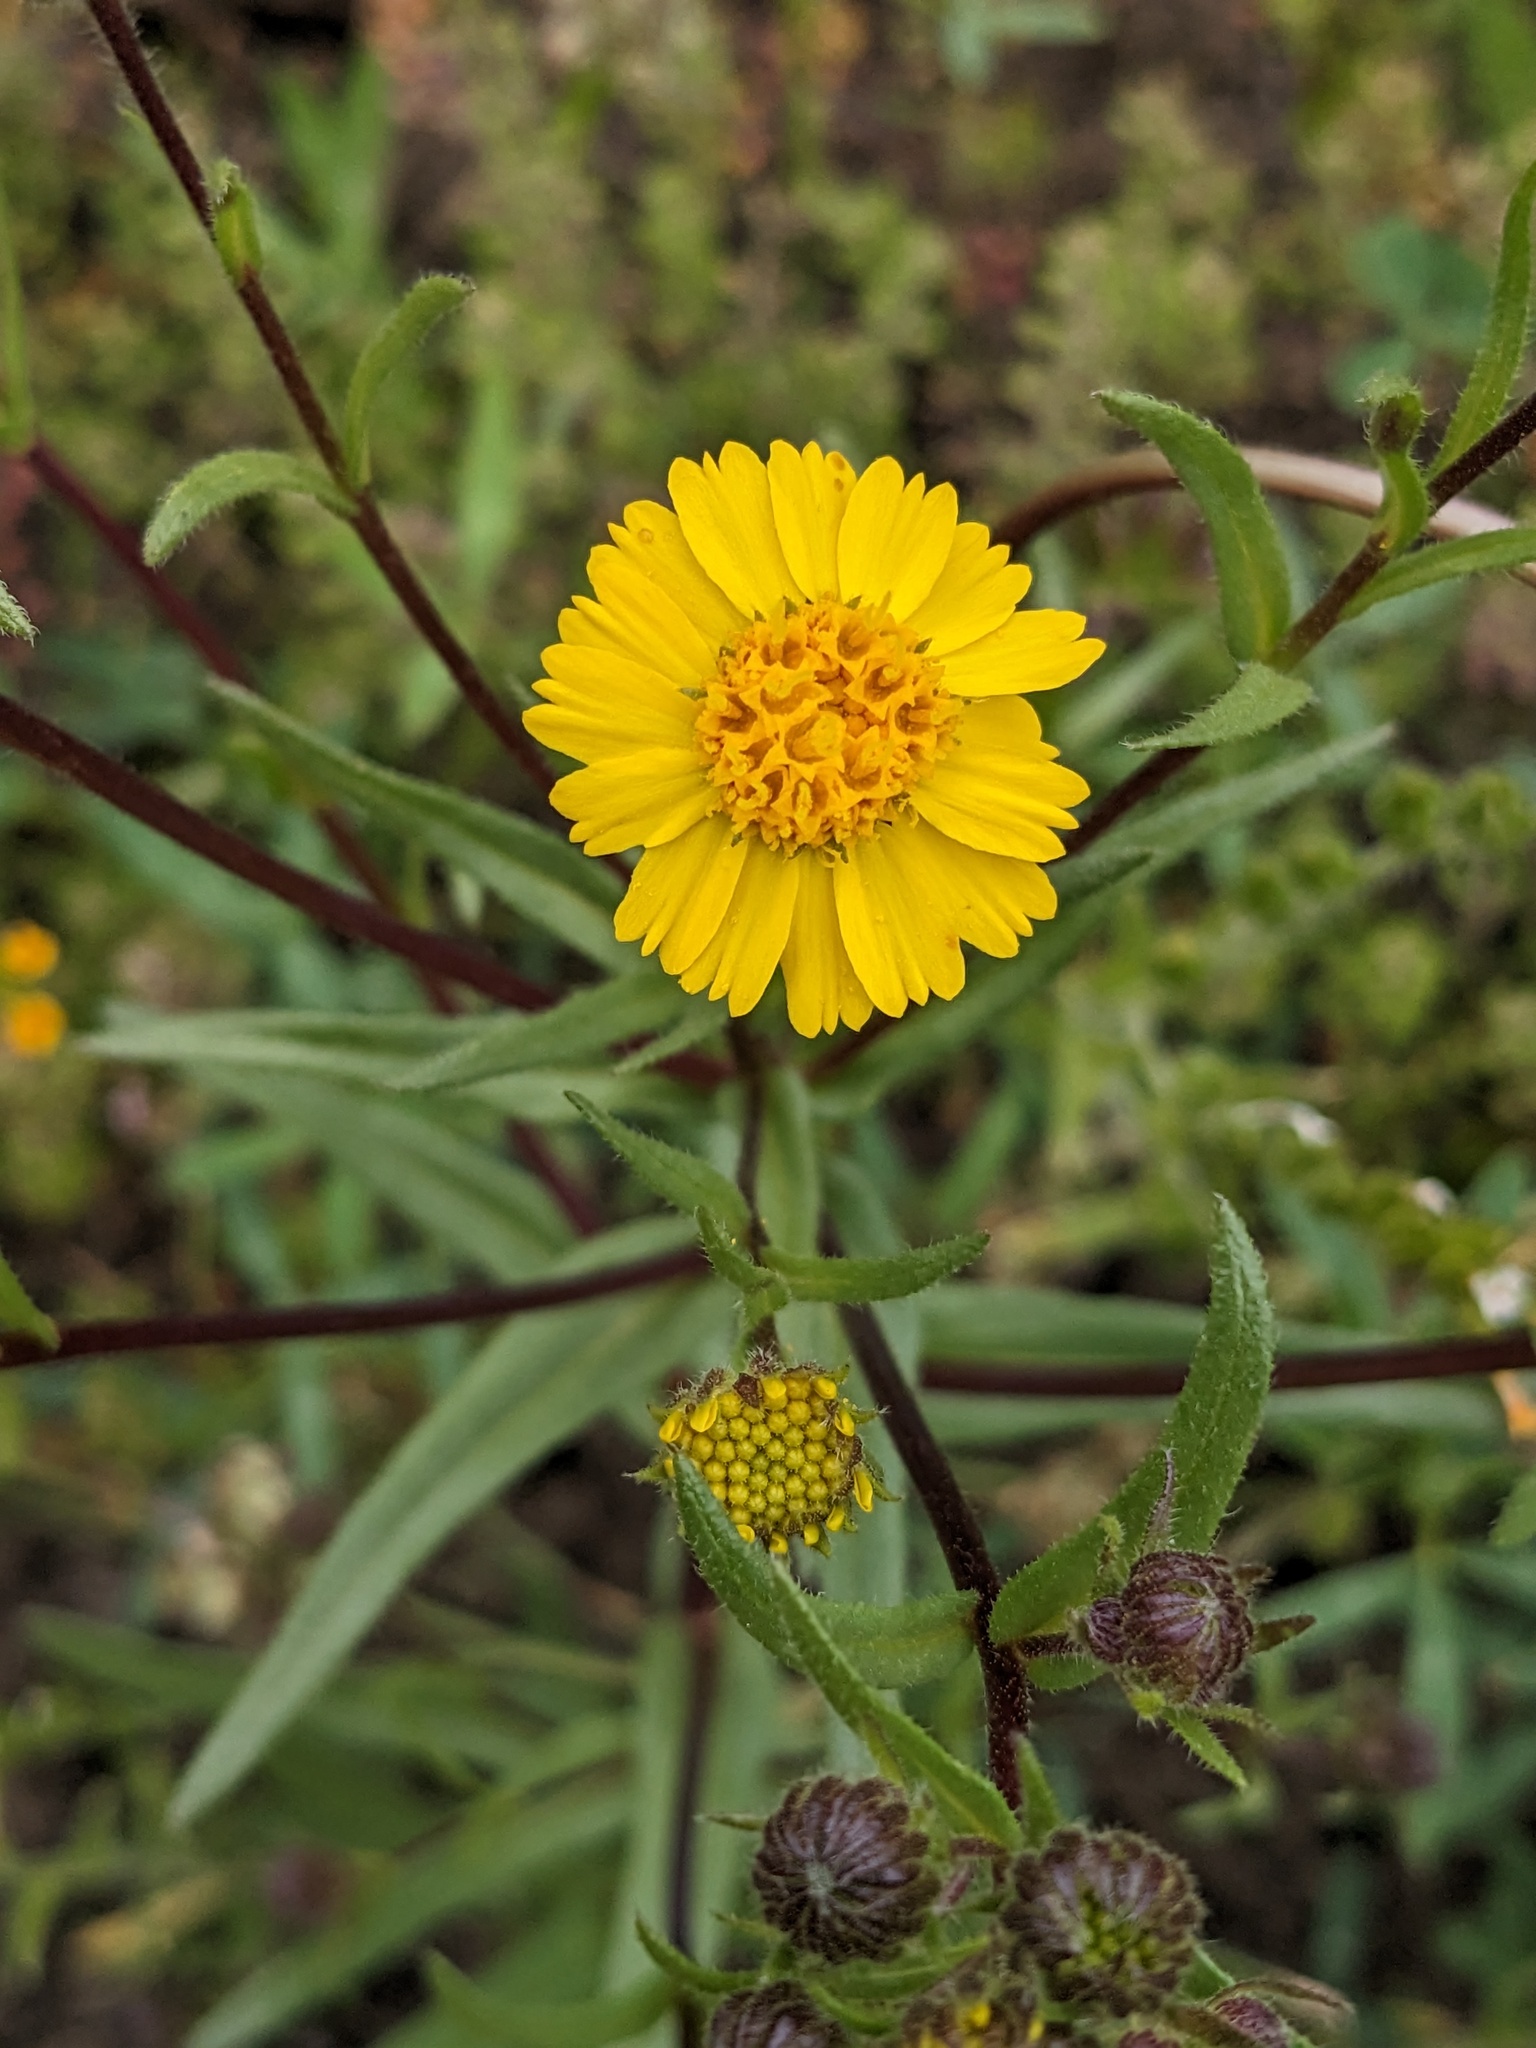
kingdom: Plantae
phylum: Tracheophyta
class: Magnoliopsida
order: Asterales
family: Asteraceae
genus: Deinandra
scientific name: Deinandra halliana
